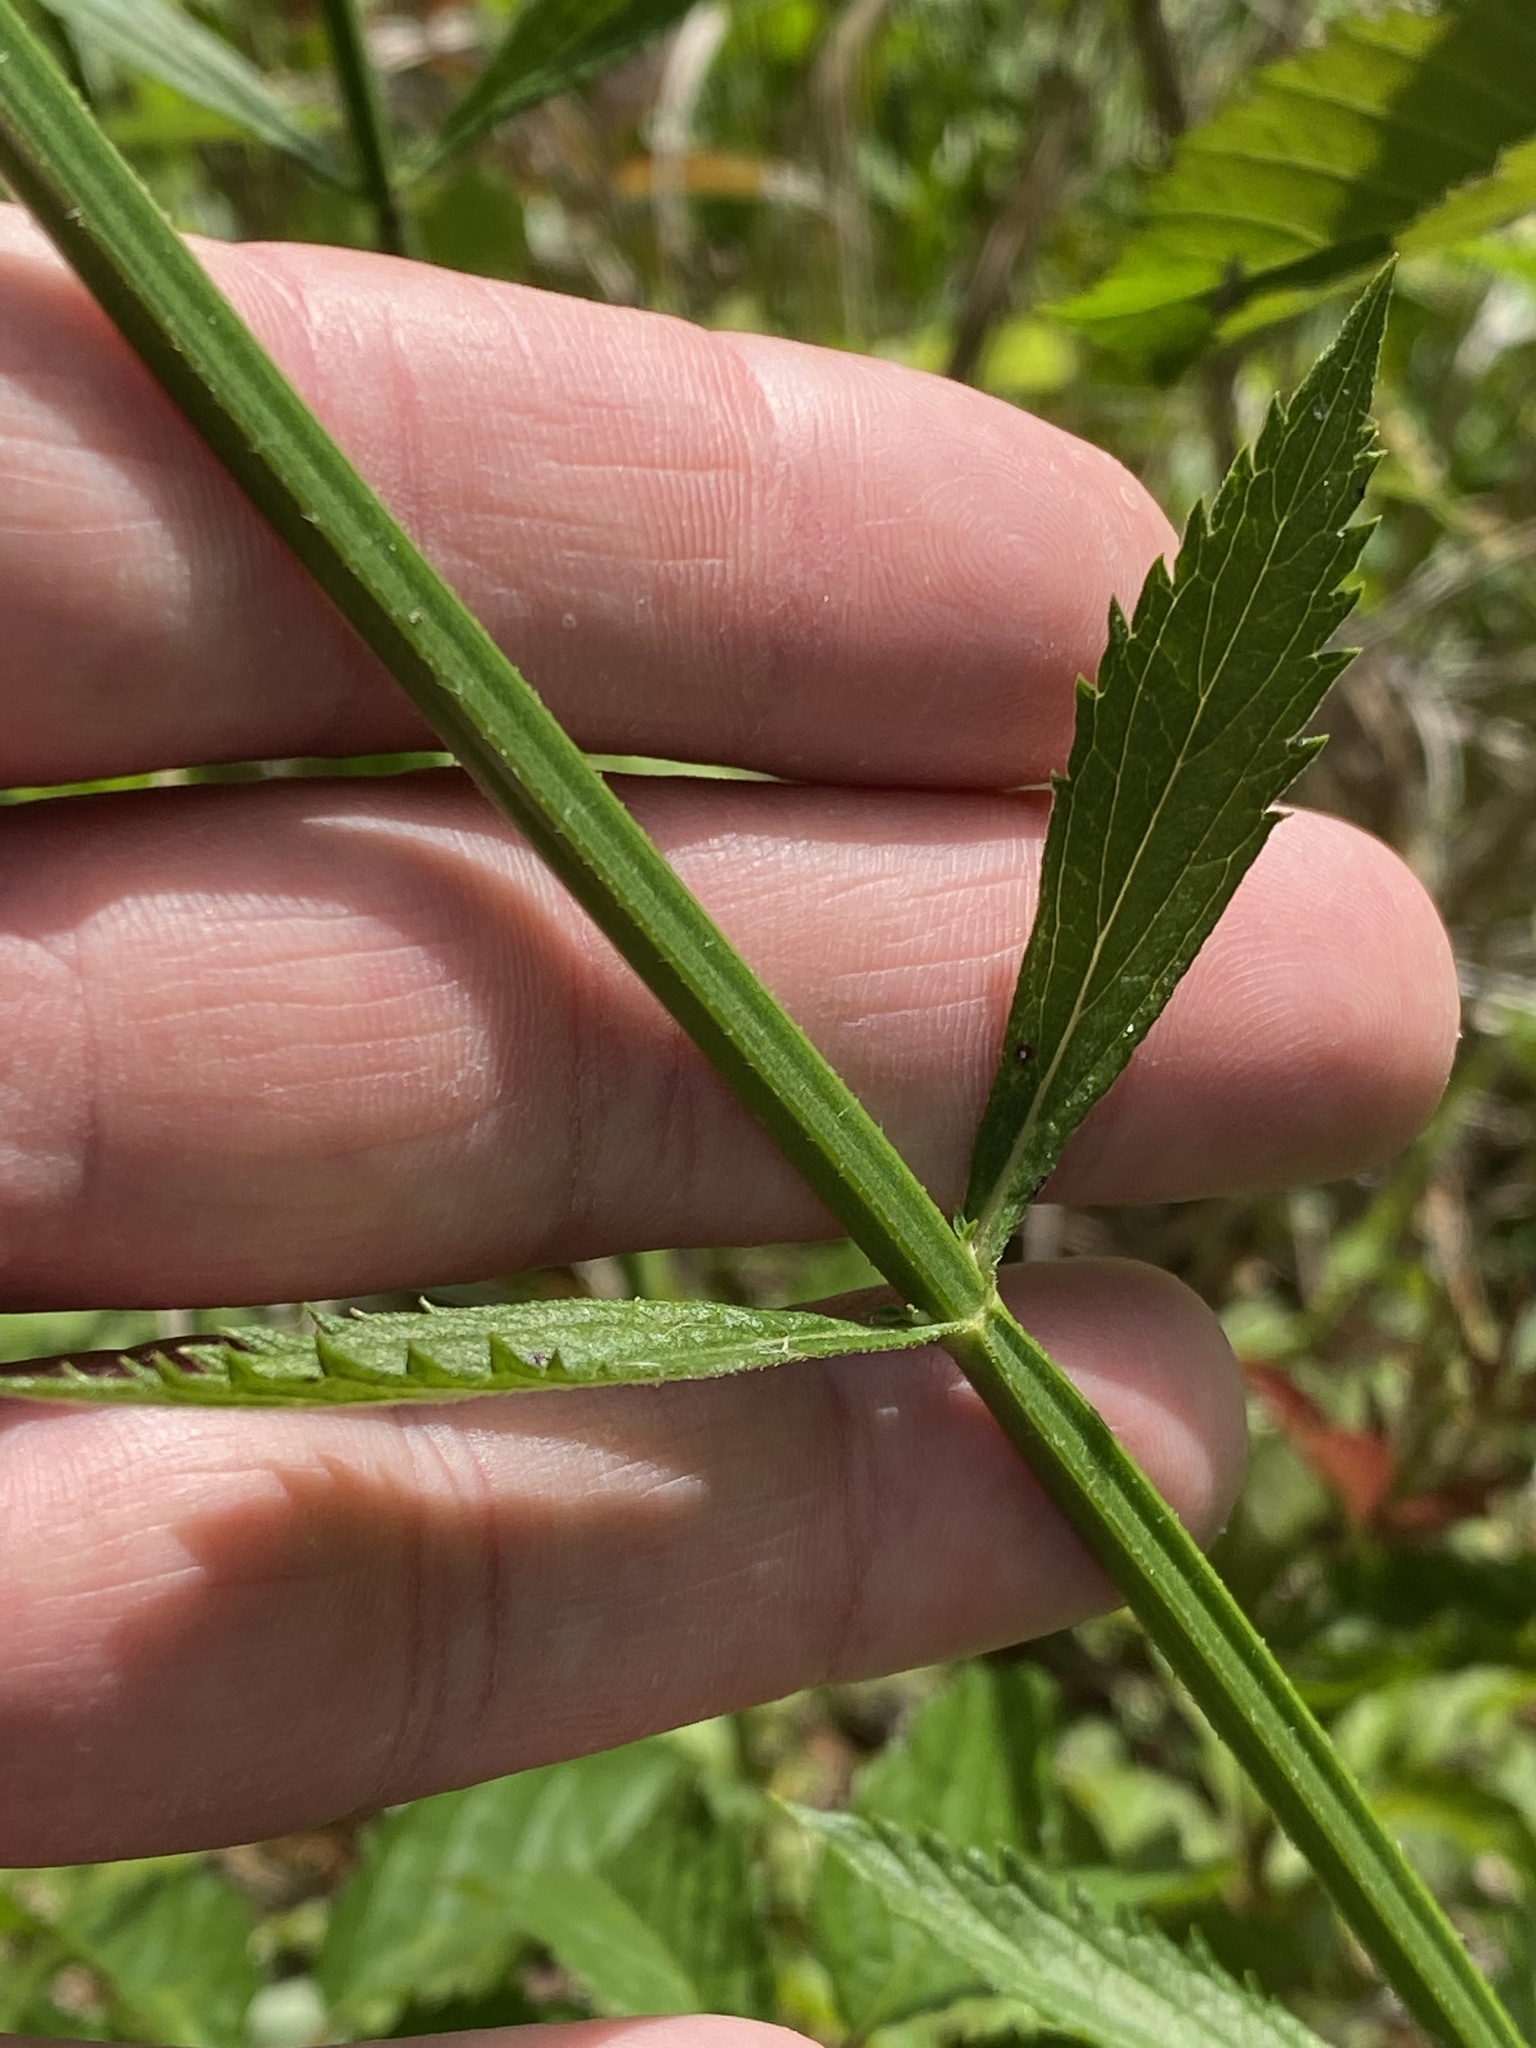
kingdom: Plantae
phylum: Tracheophyta
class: Magnoliopsida
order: Lamiales
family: Verbenaceae
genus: Verbena
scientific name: Verbena brasiliensis
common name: Brazilian vervain
